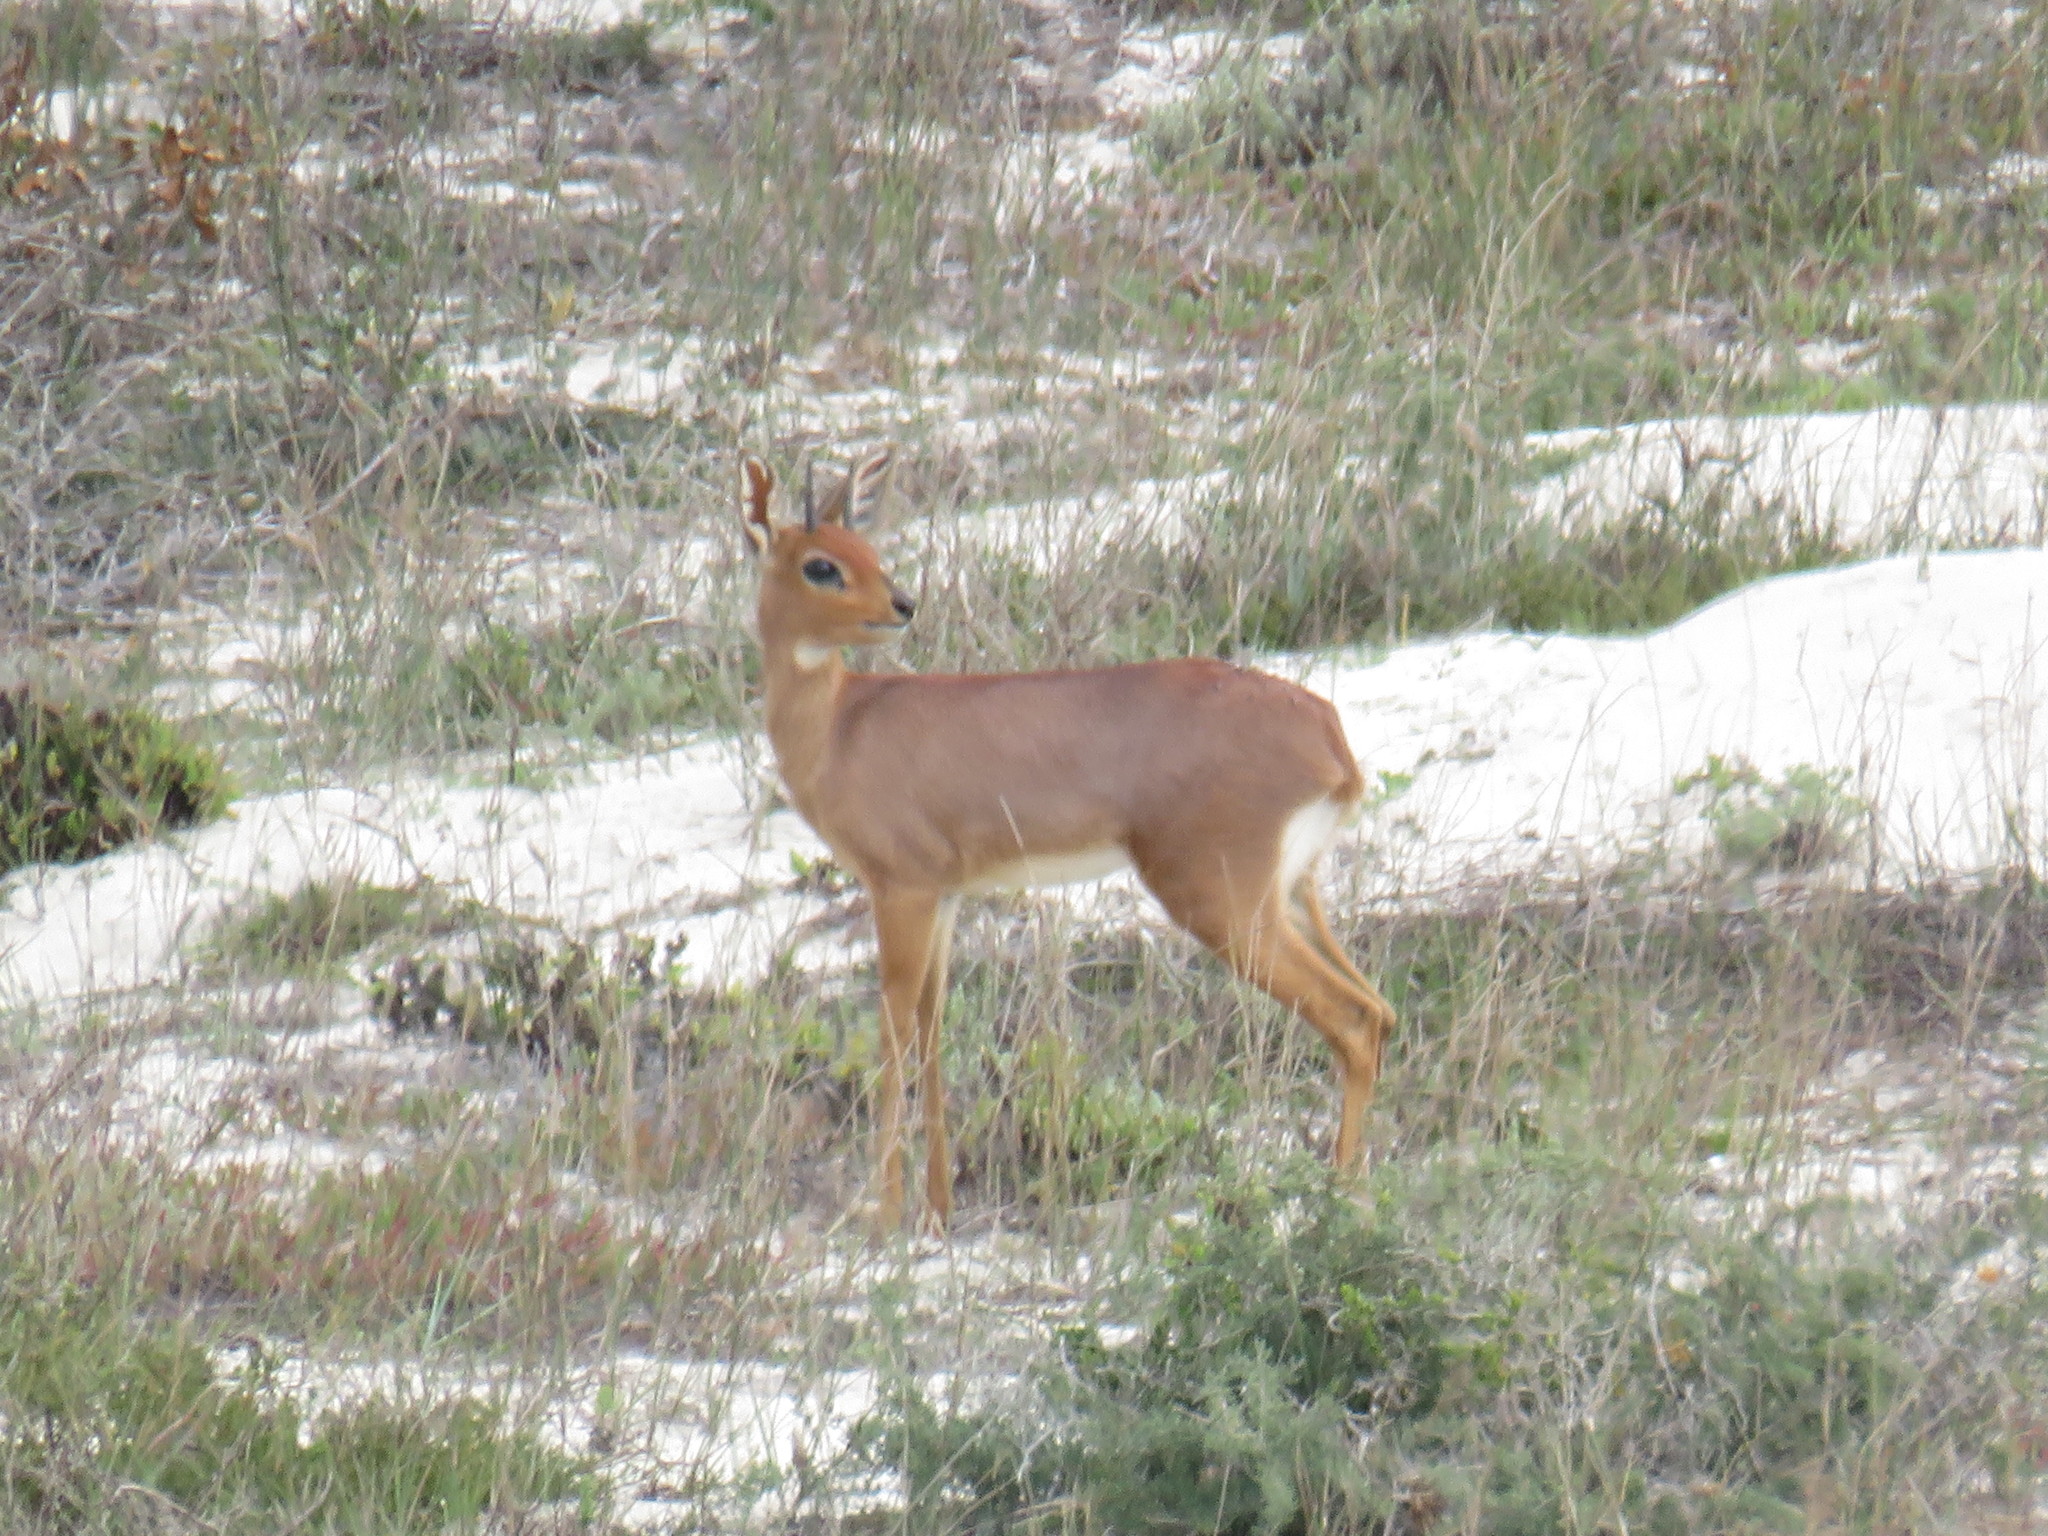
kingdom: Animalia
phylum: Chordata
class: Mammalia
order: Artiodactyla
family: Bovidae
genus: Raphicerus
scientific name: Raphicerus campestris
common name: Steenbok
